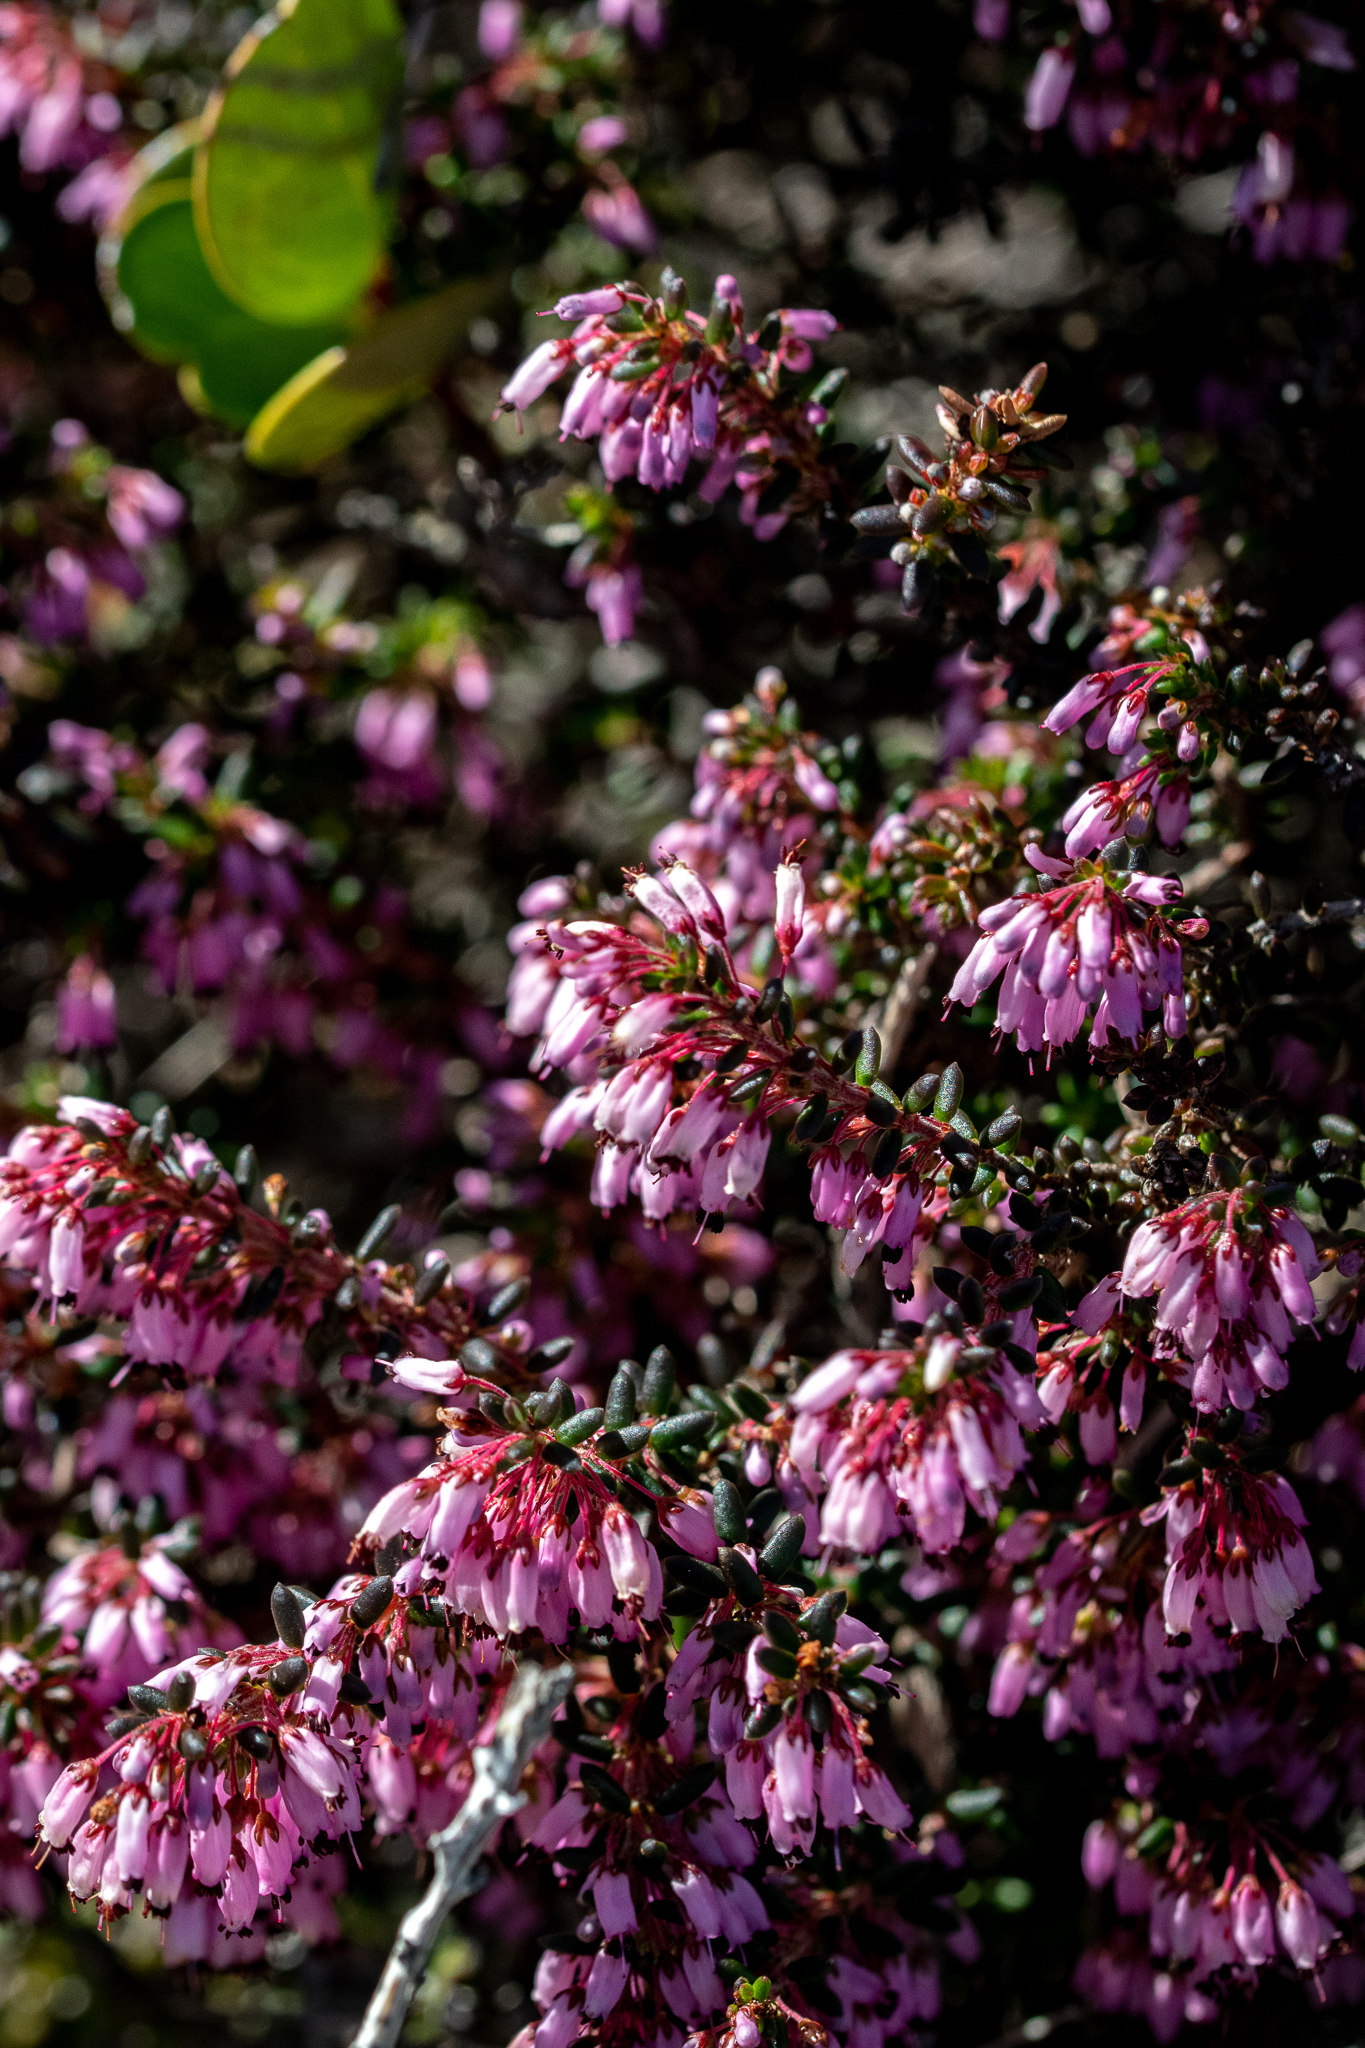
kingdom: Plantae
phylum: Tracheophyta
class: Magnoliopsida
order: Ericales
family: Ericaceae
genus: Erica
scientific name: Erica interrupta
